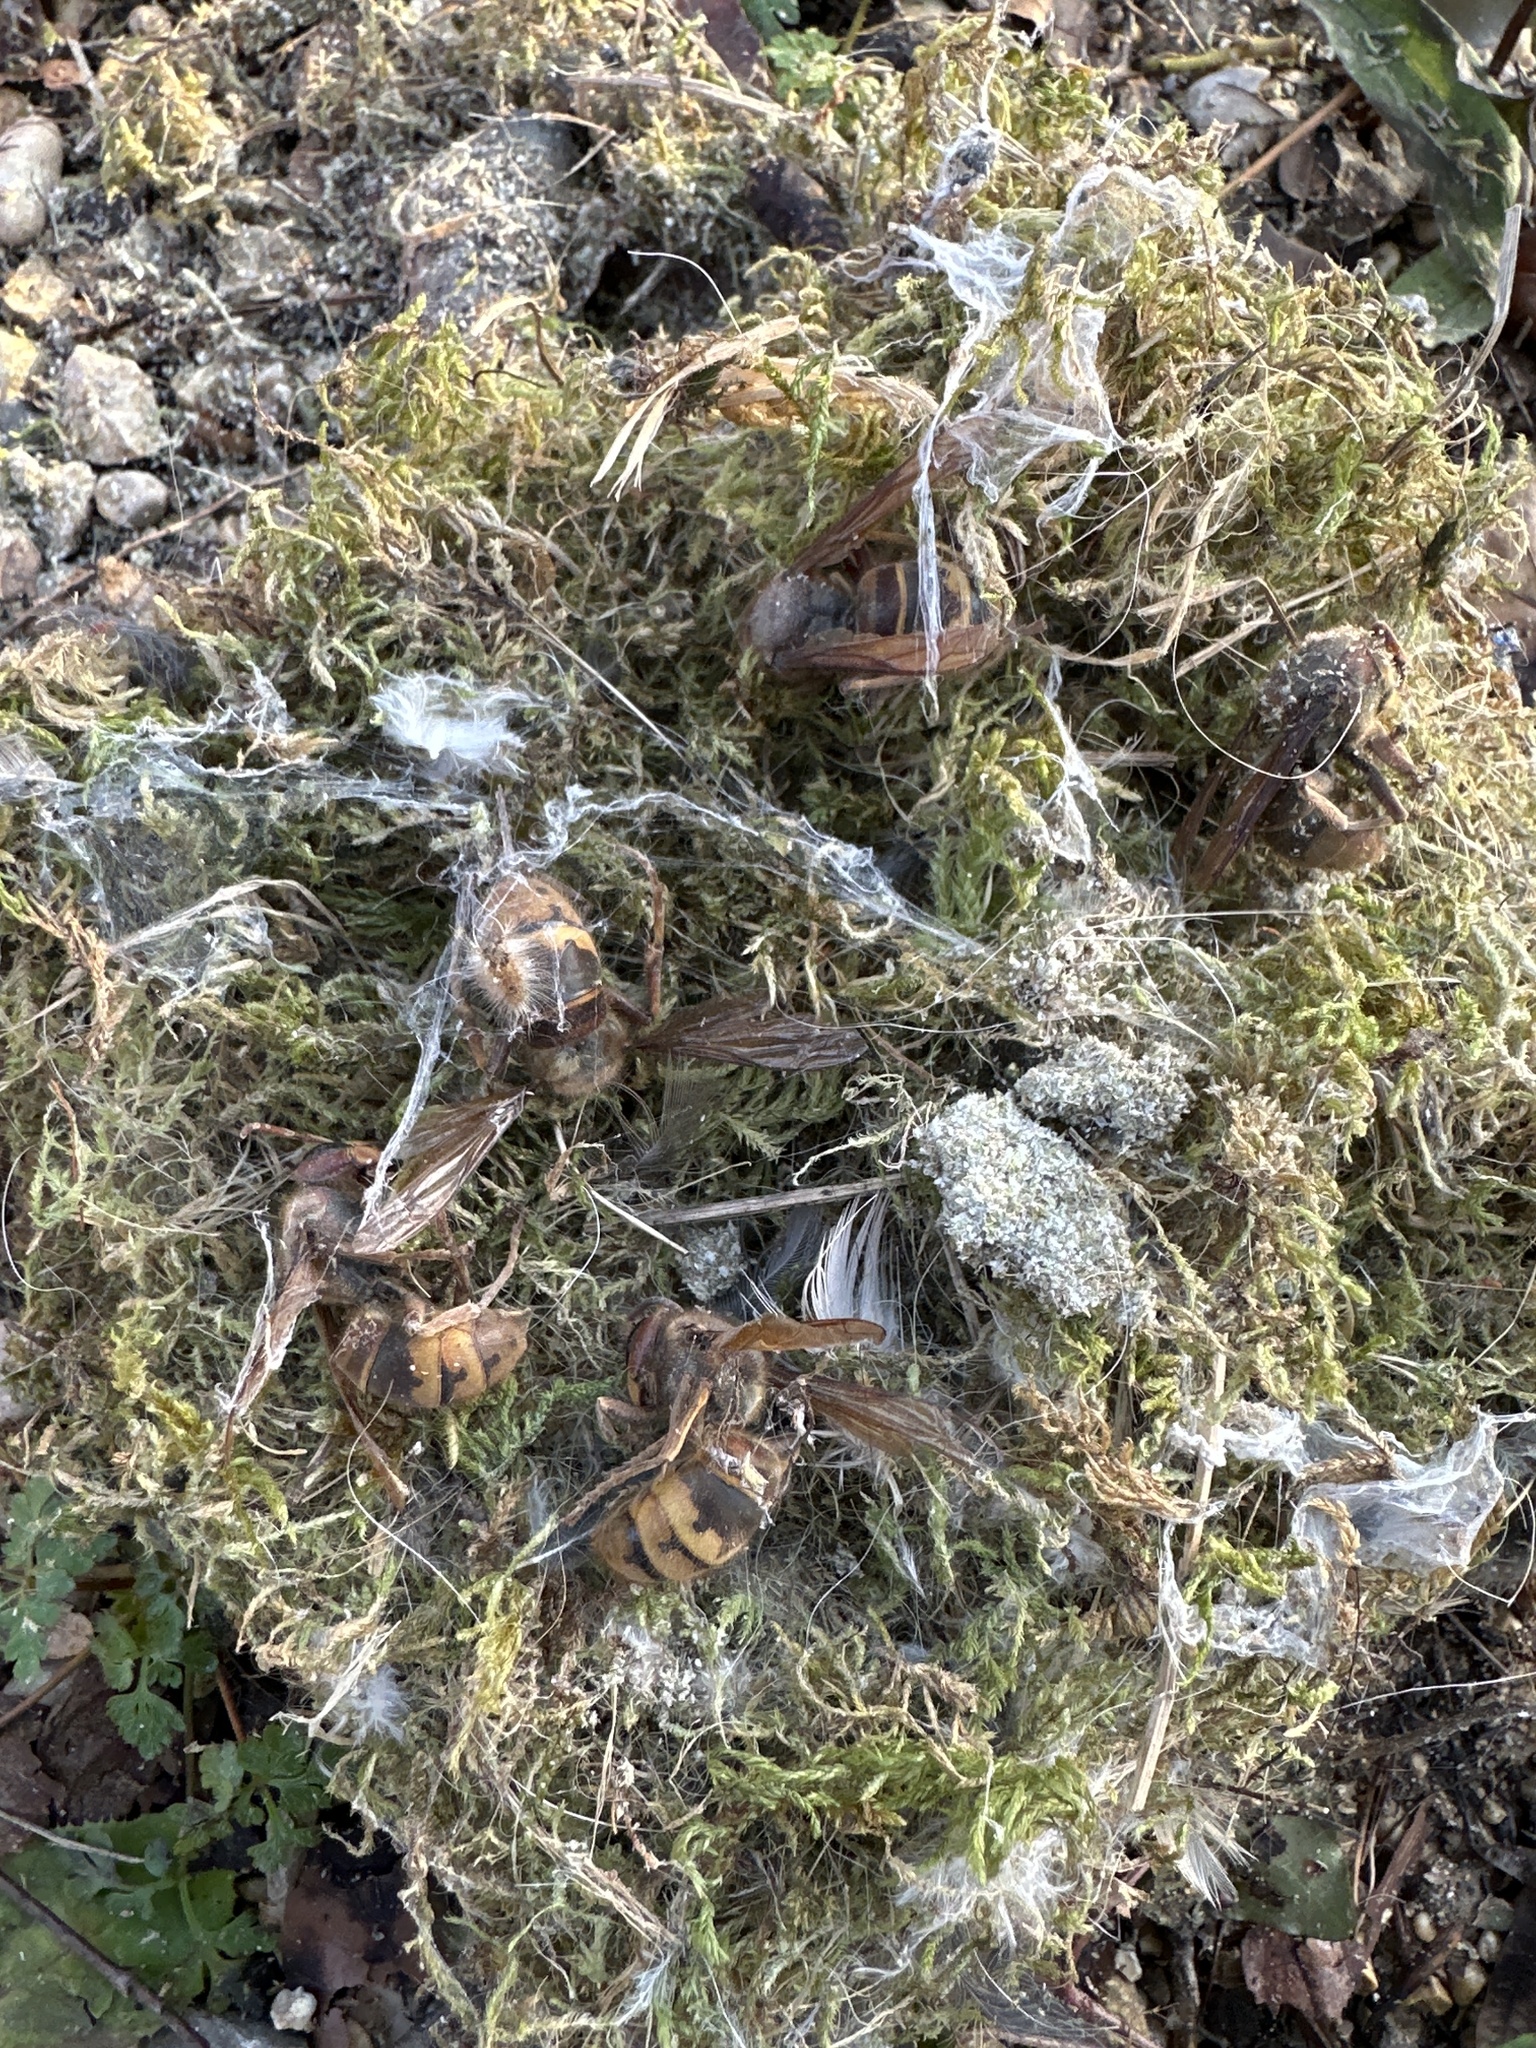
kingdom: Animalia
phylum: Arthropoda
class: Insecta
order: Hymenoptera
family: Vespidae
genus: Vespa
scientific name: Vespa crabro
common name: Hornet
